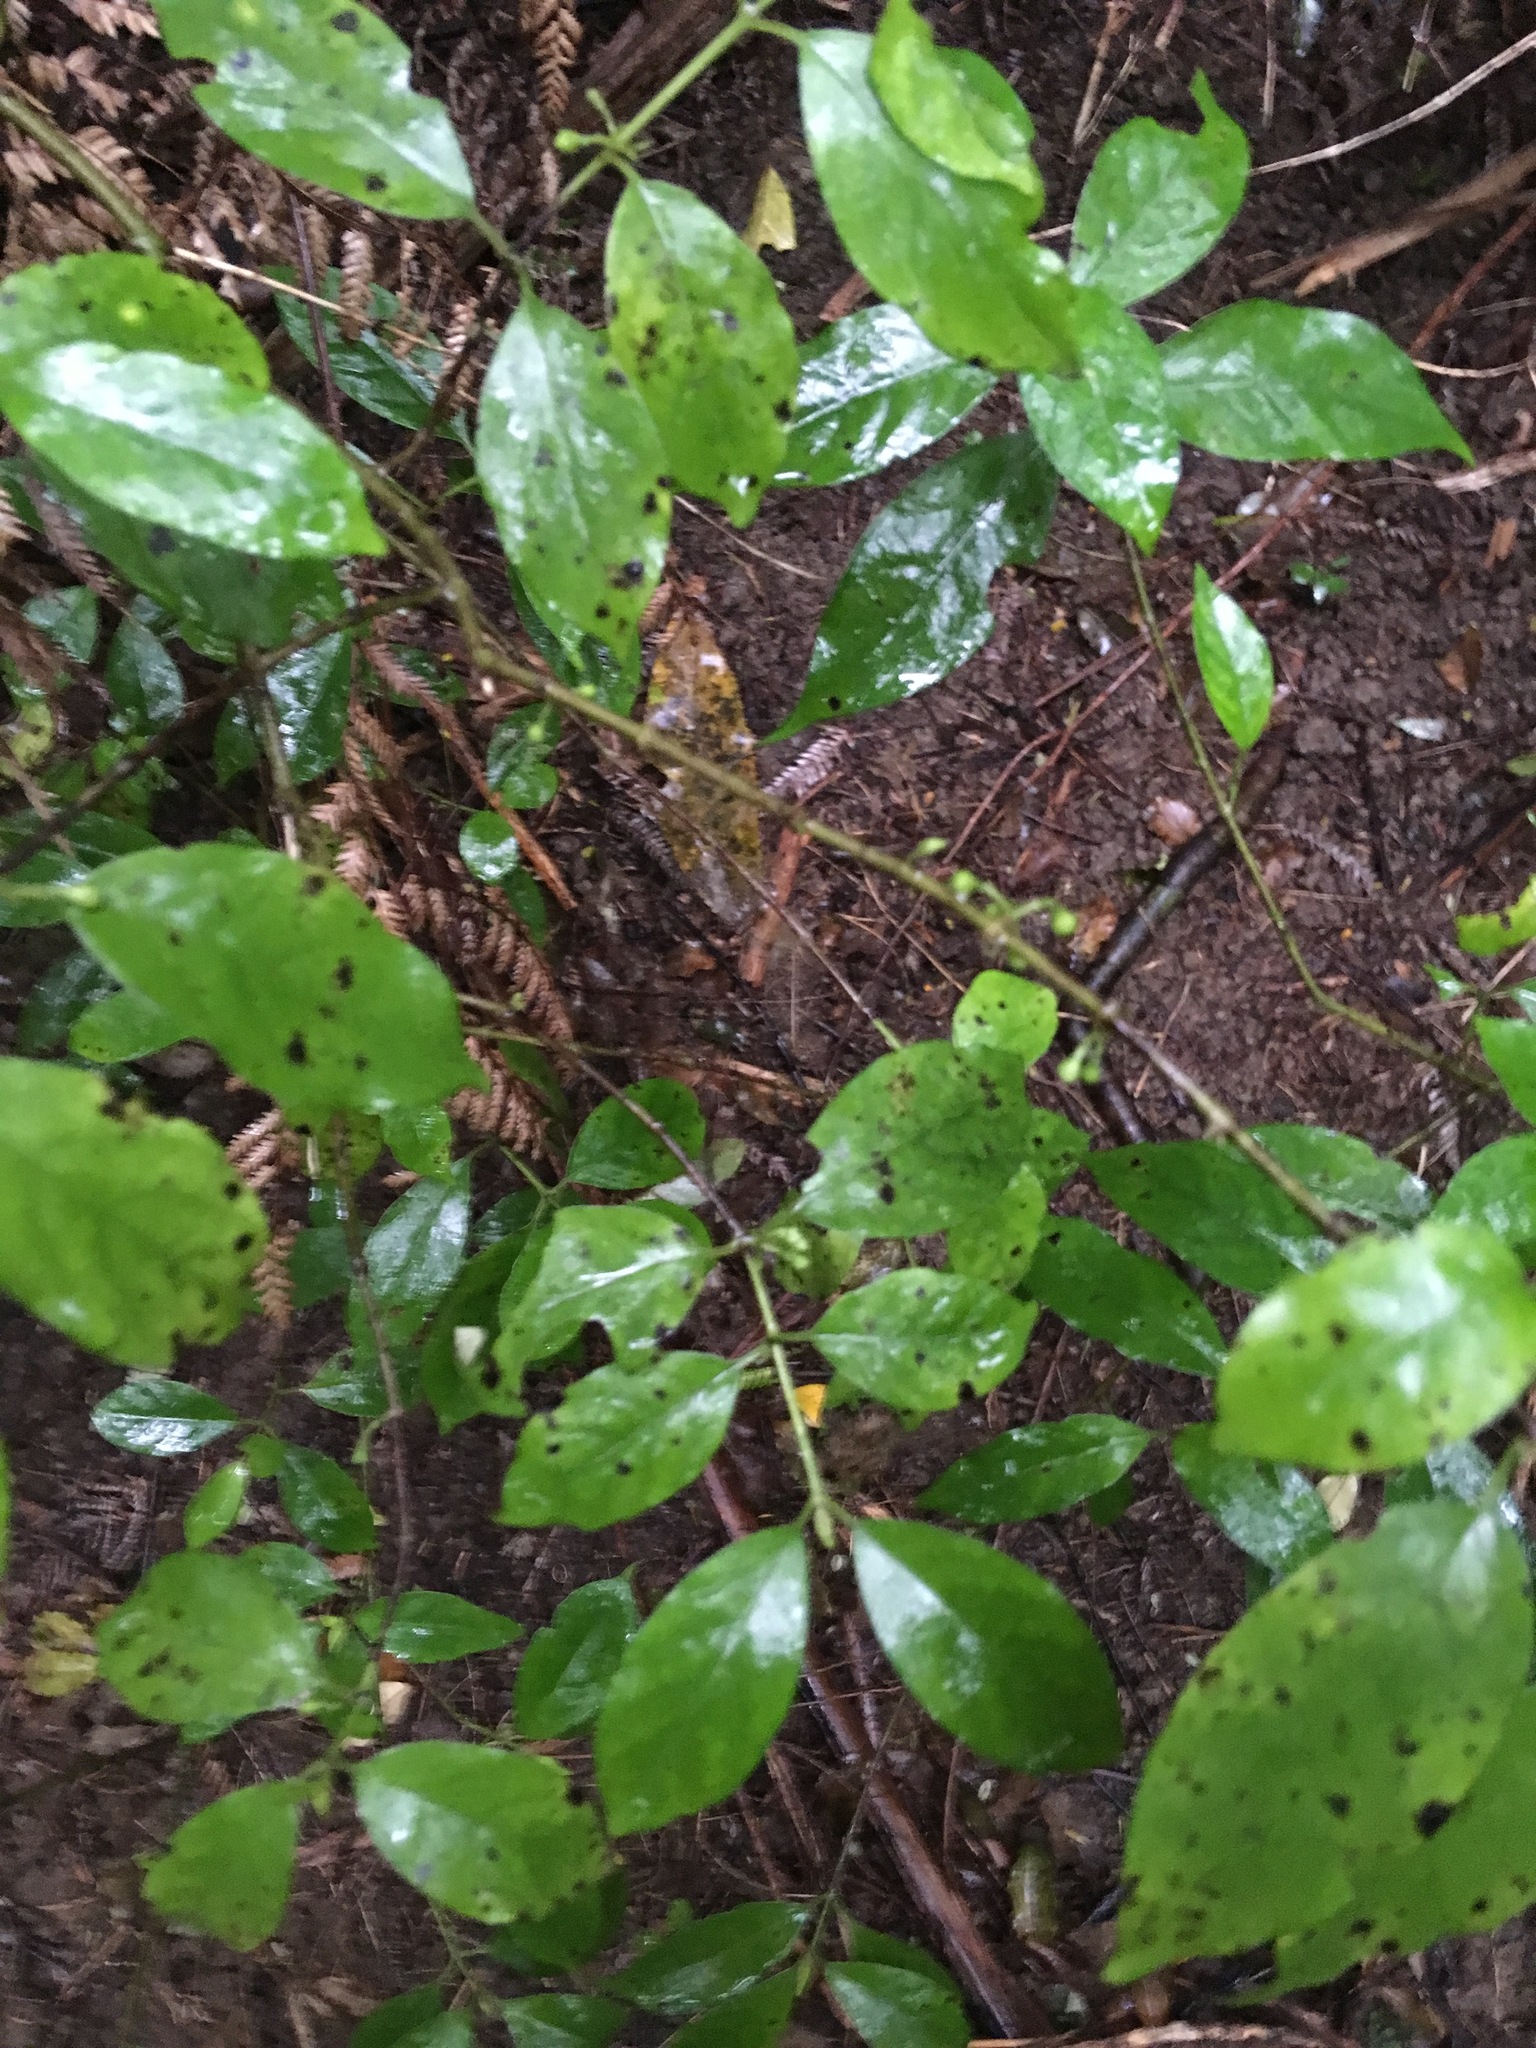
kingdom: Plantae
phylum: Tracheophyta
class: Magnoliopsida
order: Gentianales
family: Loganiaceae
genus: Geniostoma
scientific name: Geniostoma ligustrifolium
